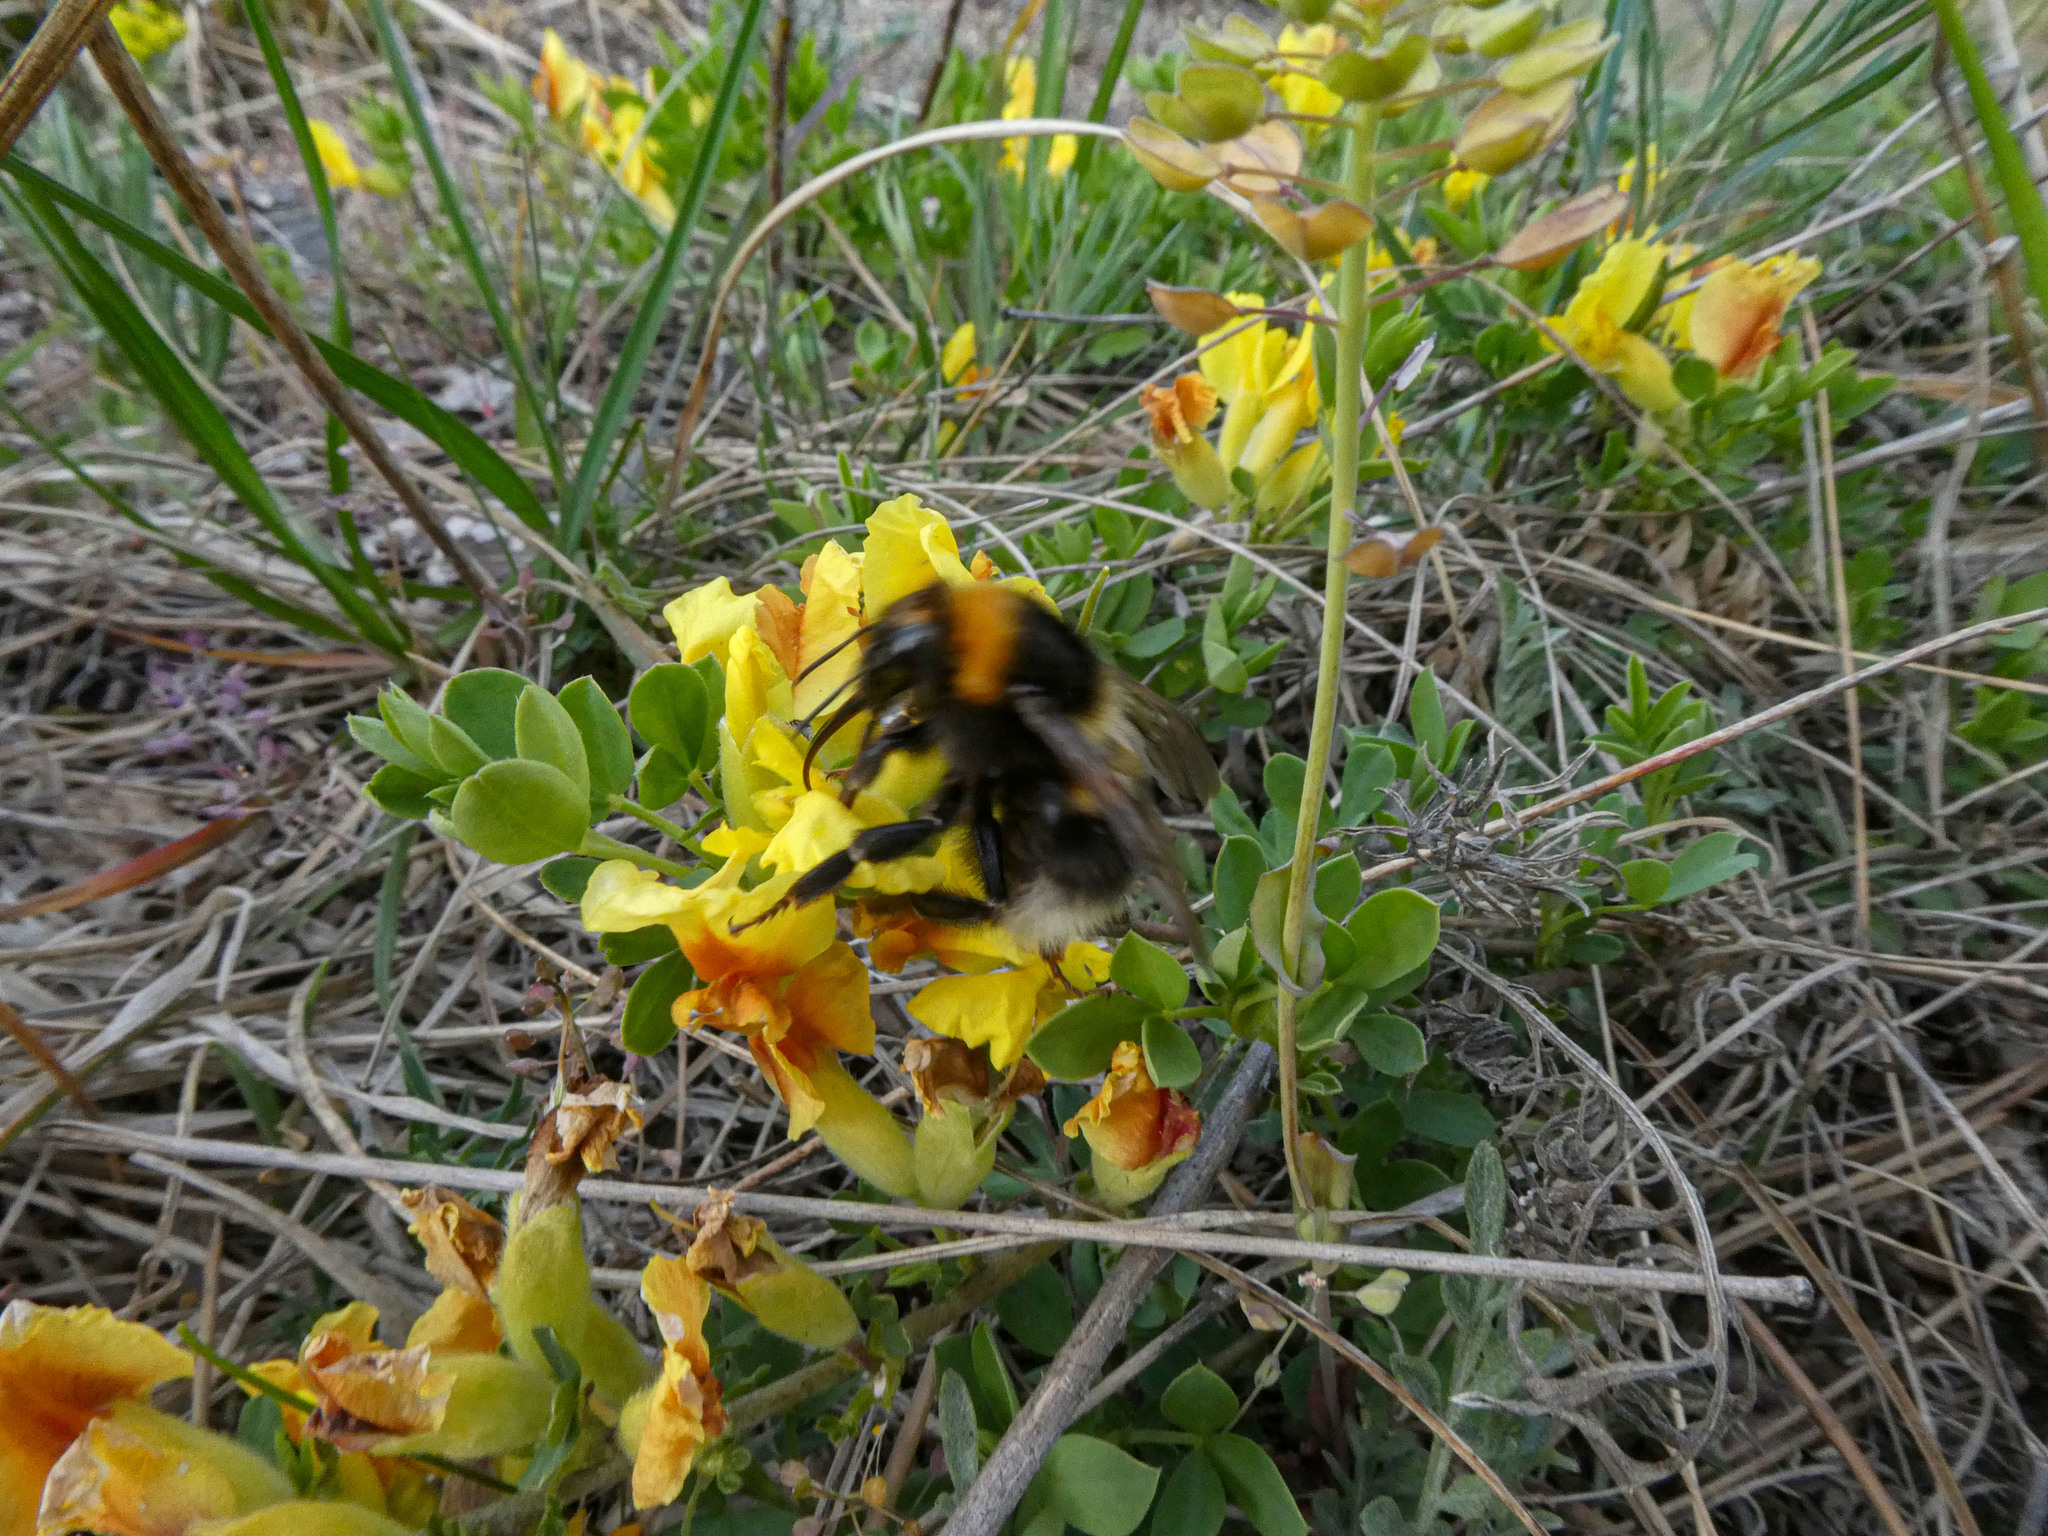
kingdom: Animalia
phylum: Arthropoda
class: Insecta
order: Hymenoptera
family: Apidae
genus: Bombus
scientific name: Bombus hortorum
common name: Garden bumblebee
